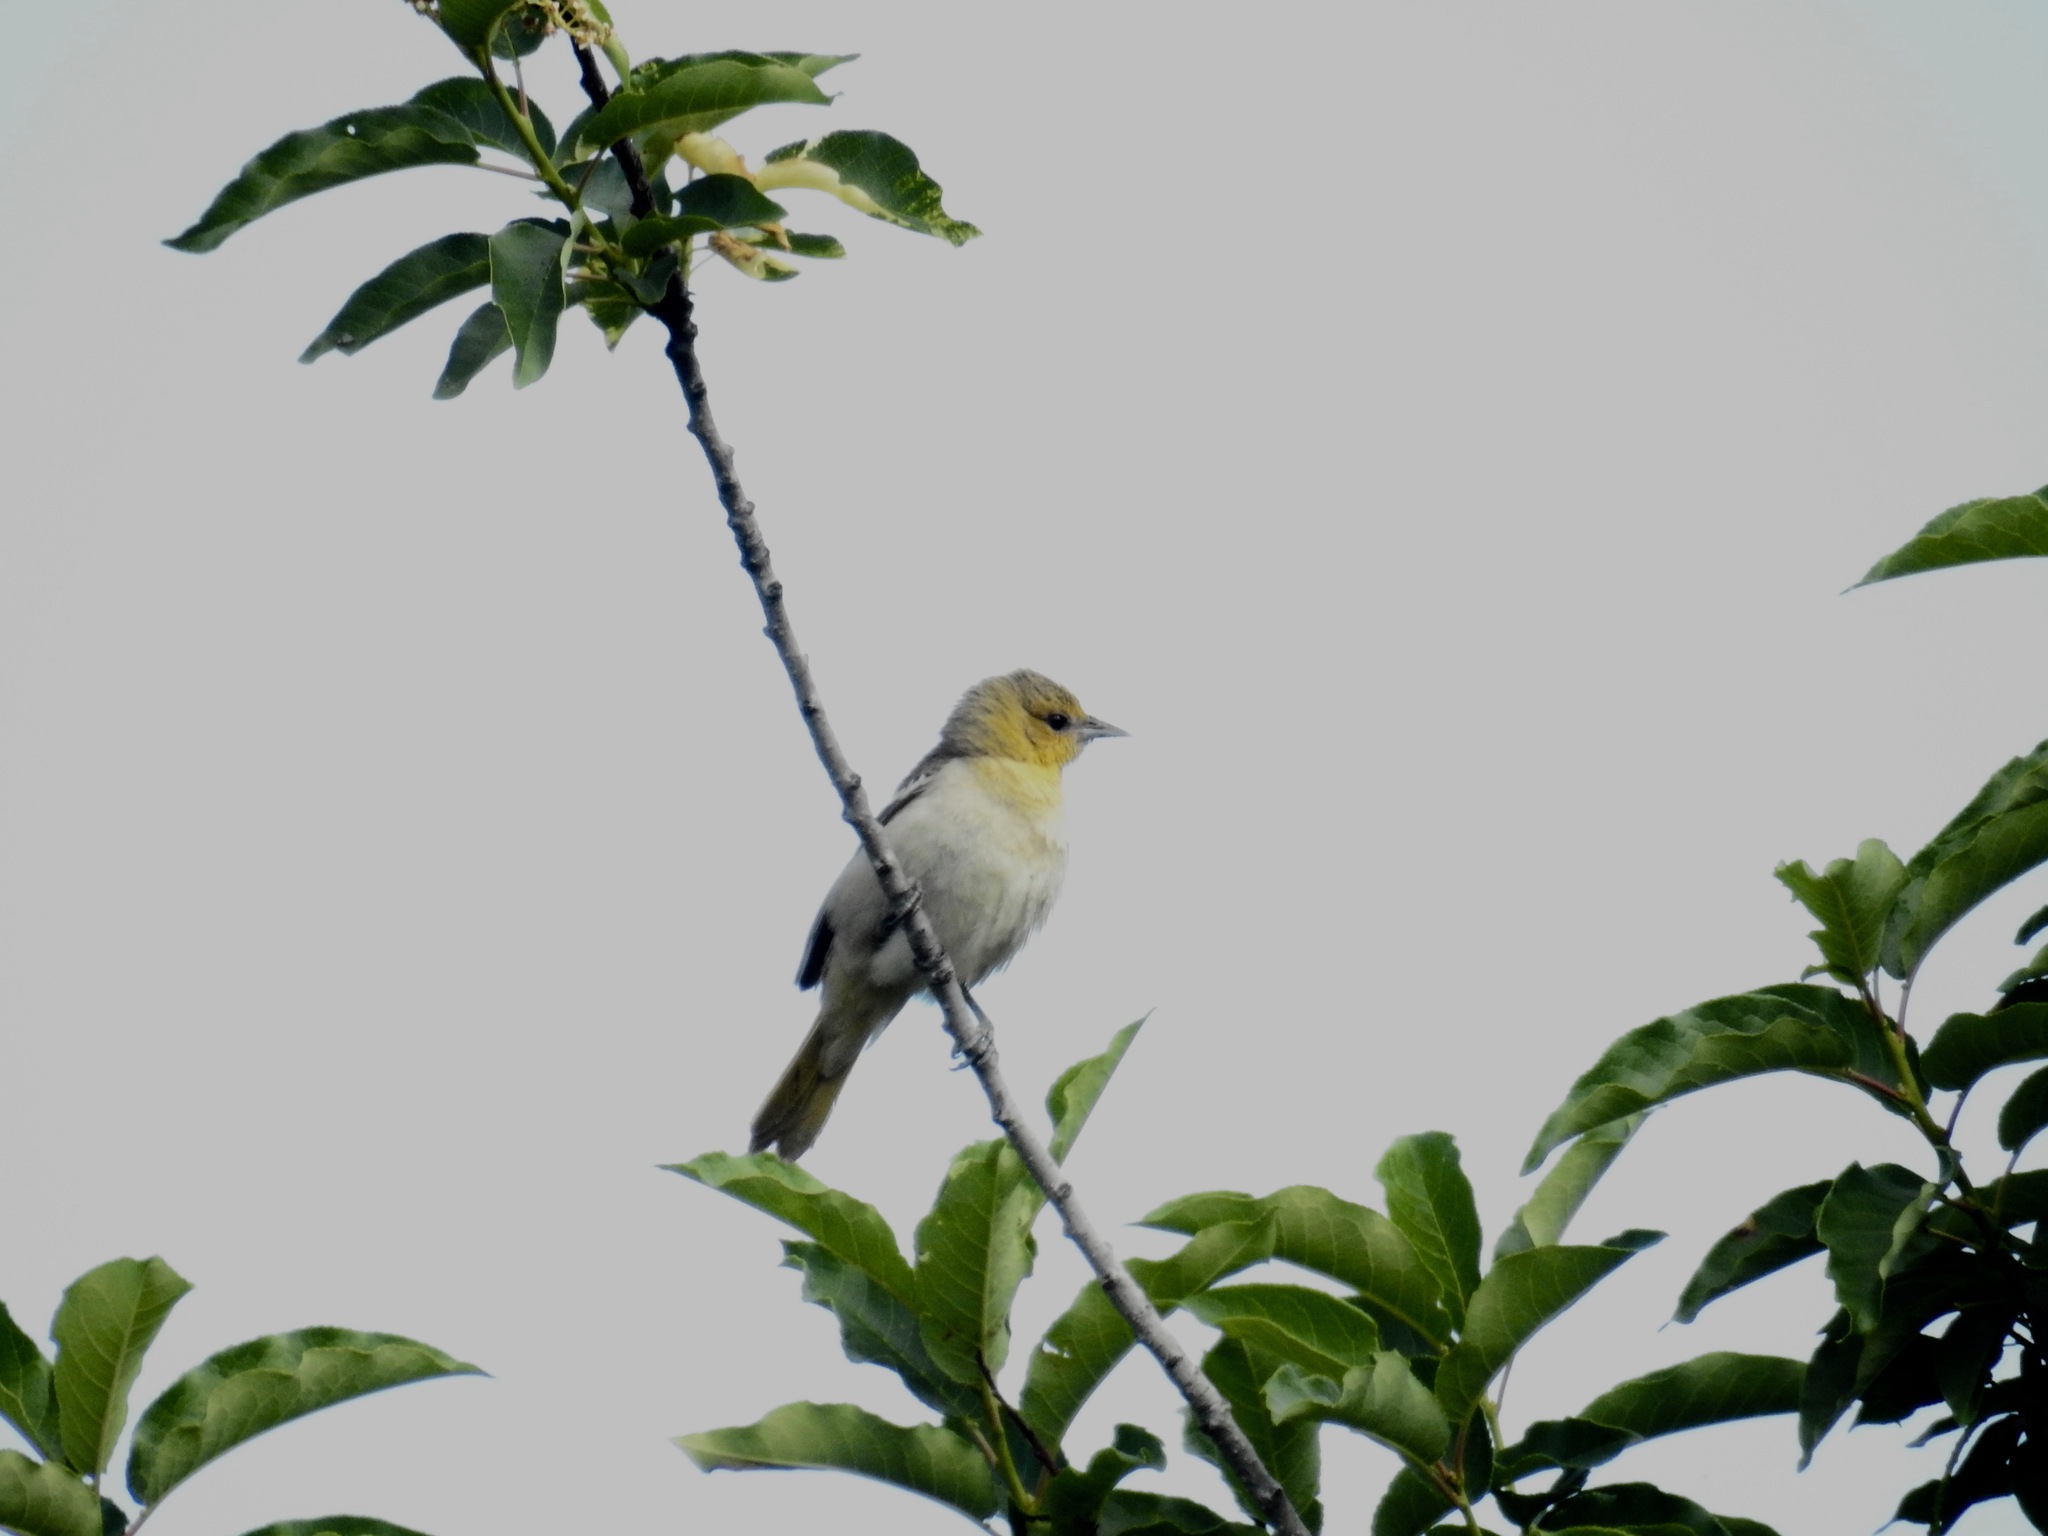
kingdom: Animalia
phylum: Chordata
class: Aves
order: Passeriformes
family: Icteridae
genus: Icterus
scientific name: Icterus bullockii
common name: Bullock's oriole
